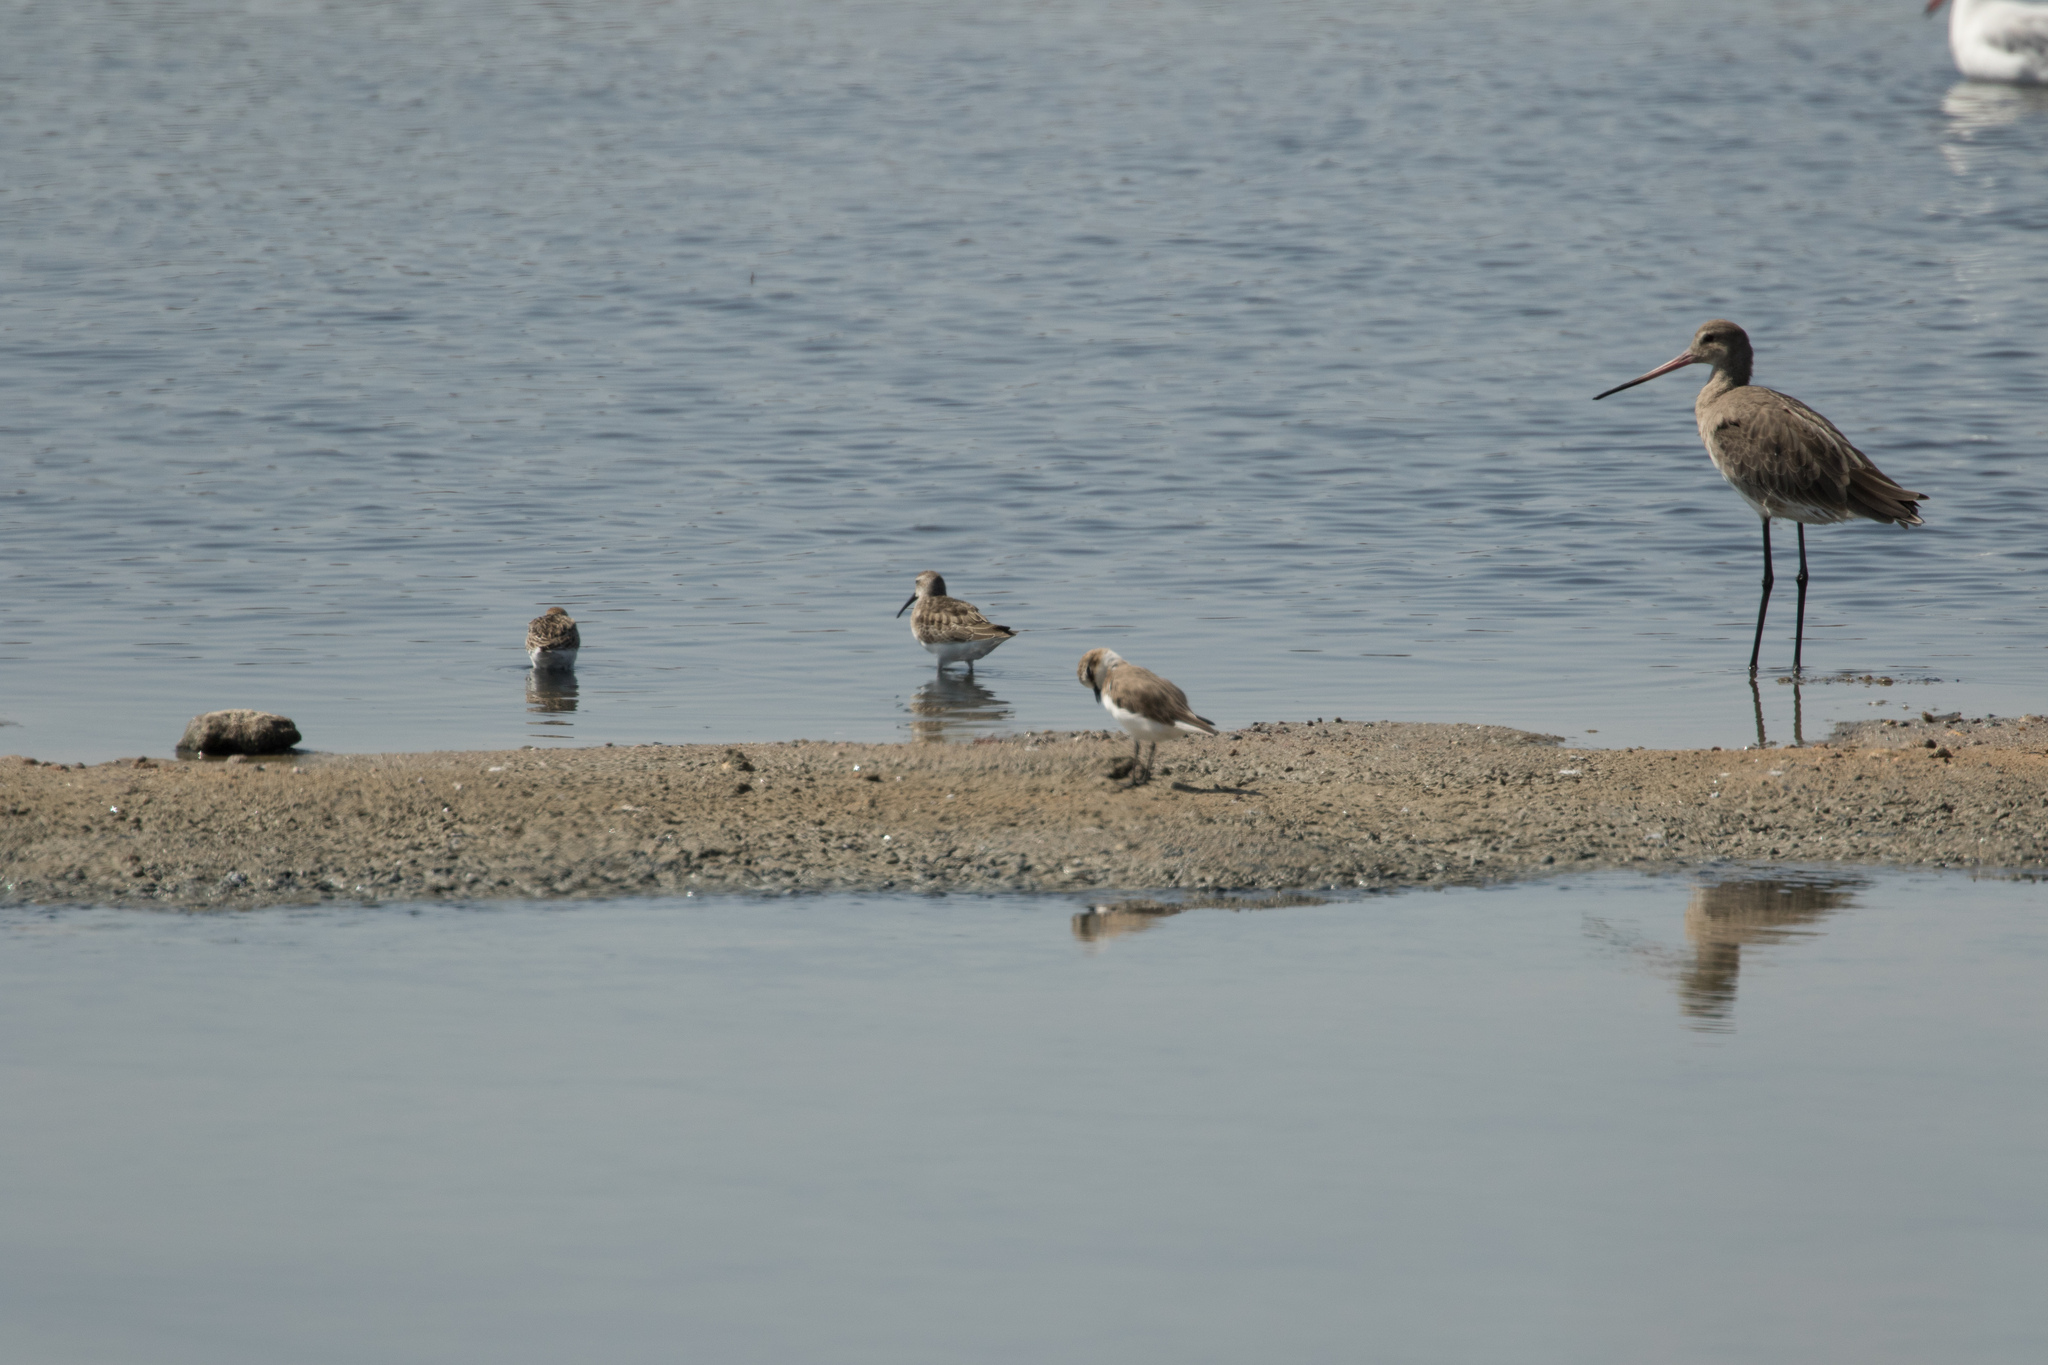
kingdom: Animalia
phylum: Chordata
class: Aves
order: Charadriiformes
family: Charadriidae
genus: Charadrius
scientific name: Charadrius alexandrinus
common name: Kentish plover
